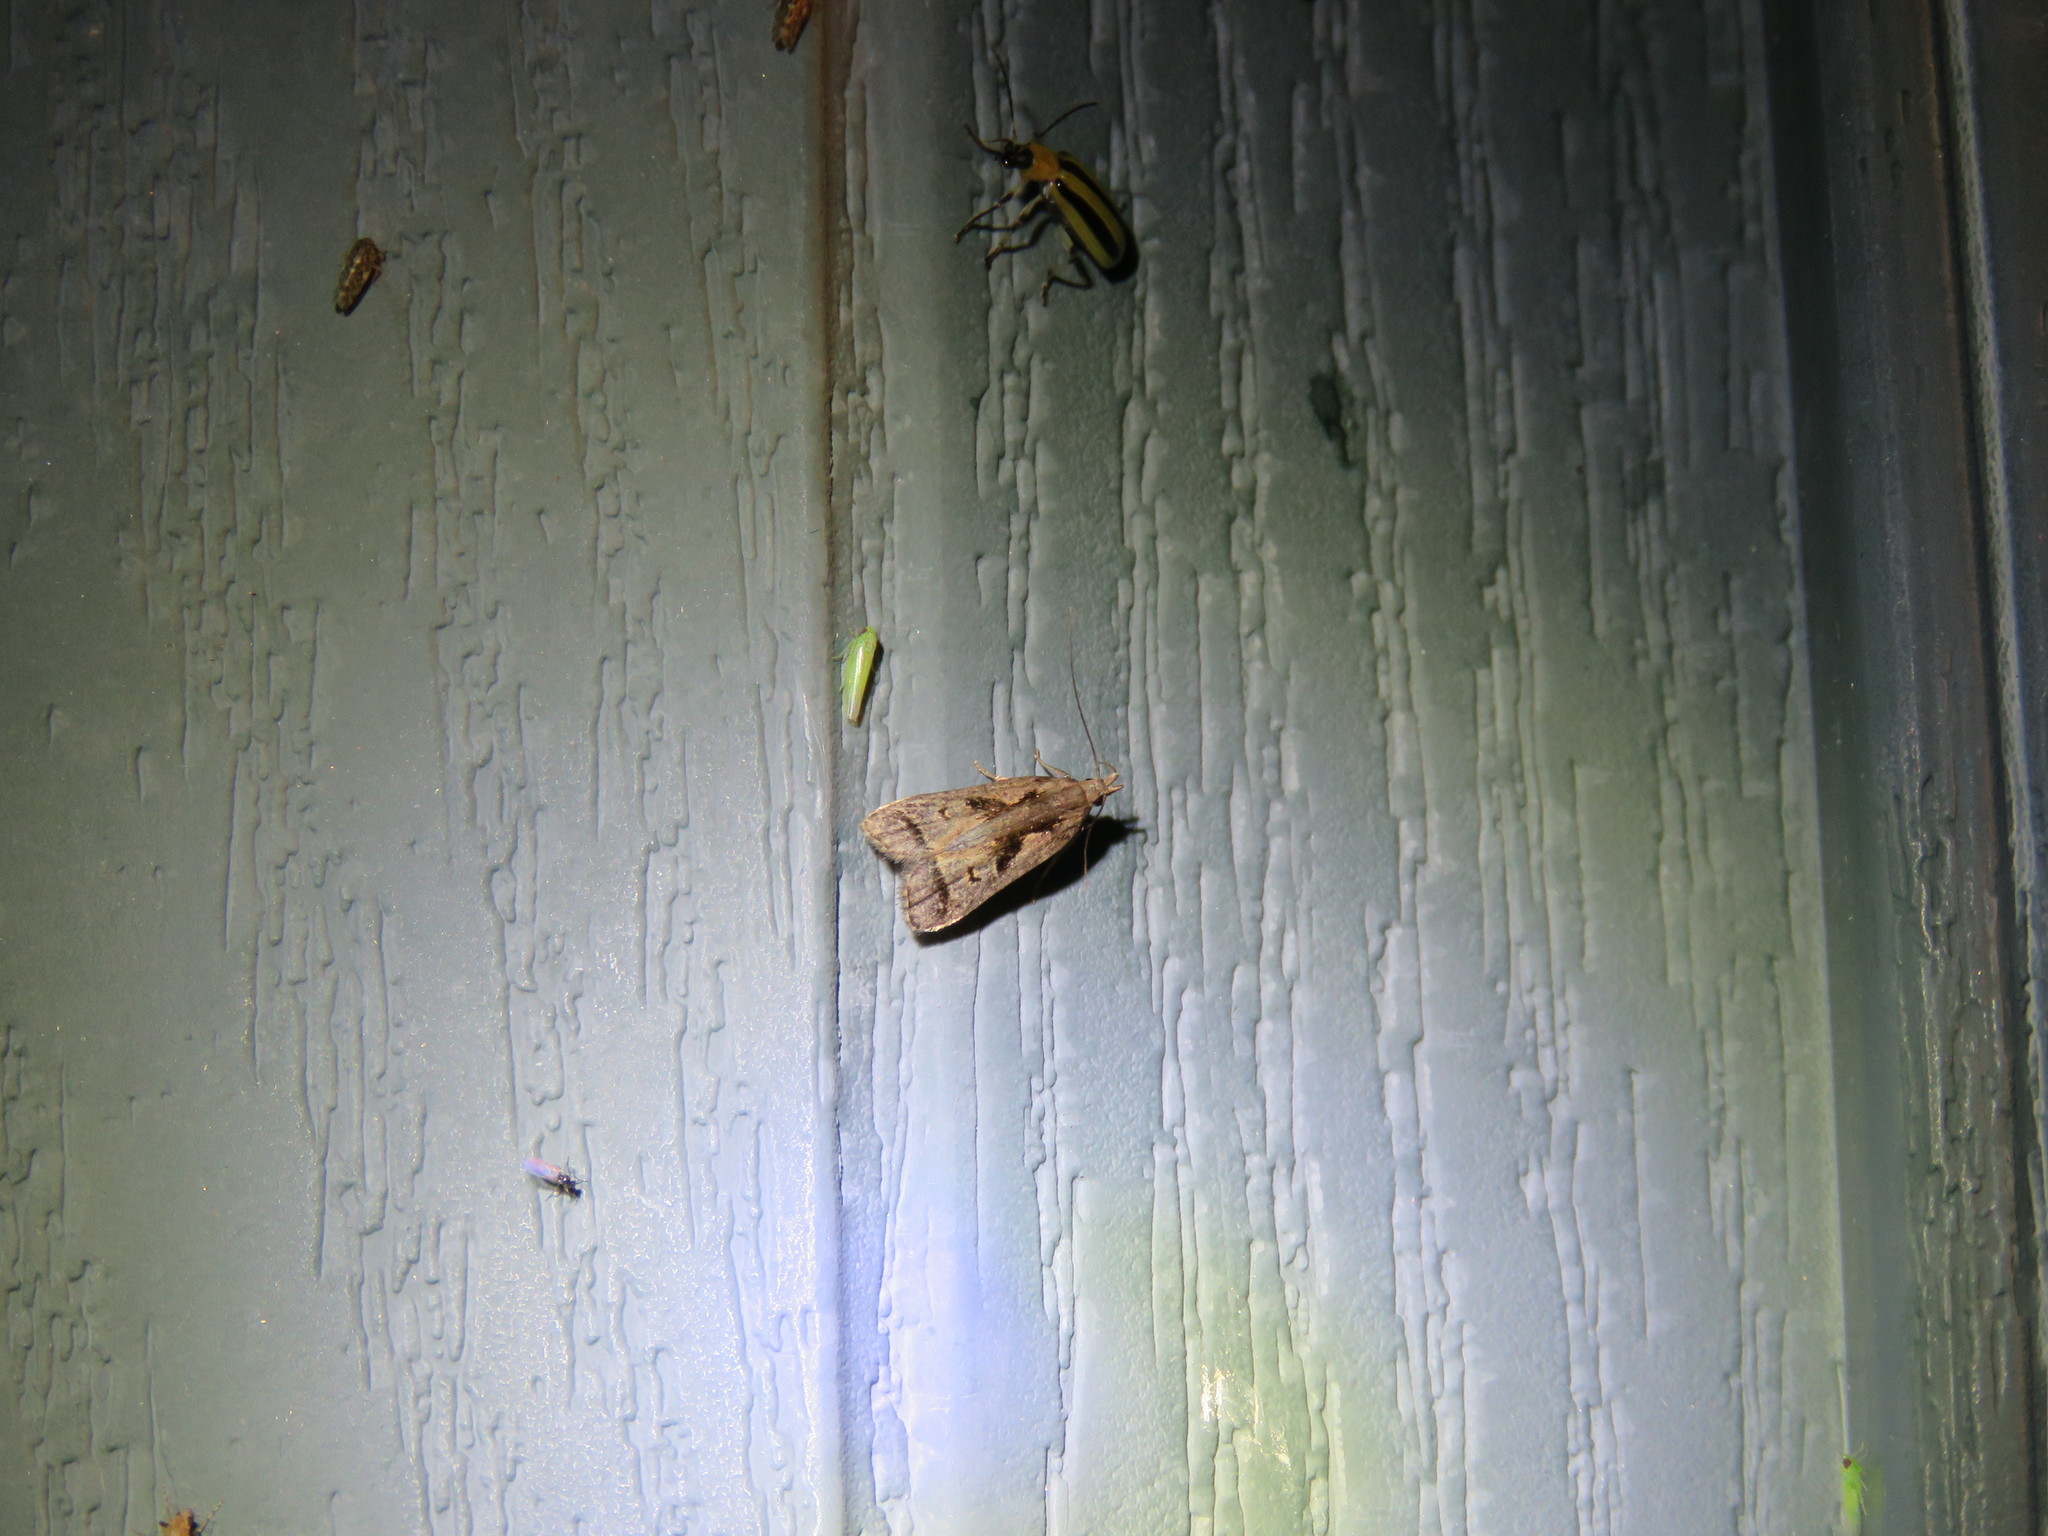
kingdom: Animalia
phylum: Arthropoda
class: Insecta
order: Lepidoptera
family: Gelechiidae
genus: Dichomeris
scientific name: Dichomeris bilobella
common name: Bilobed dichomeris moth
